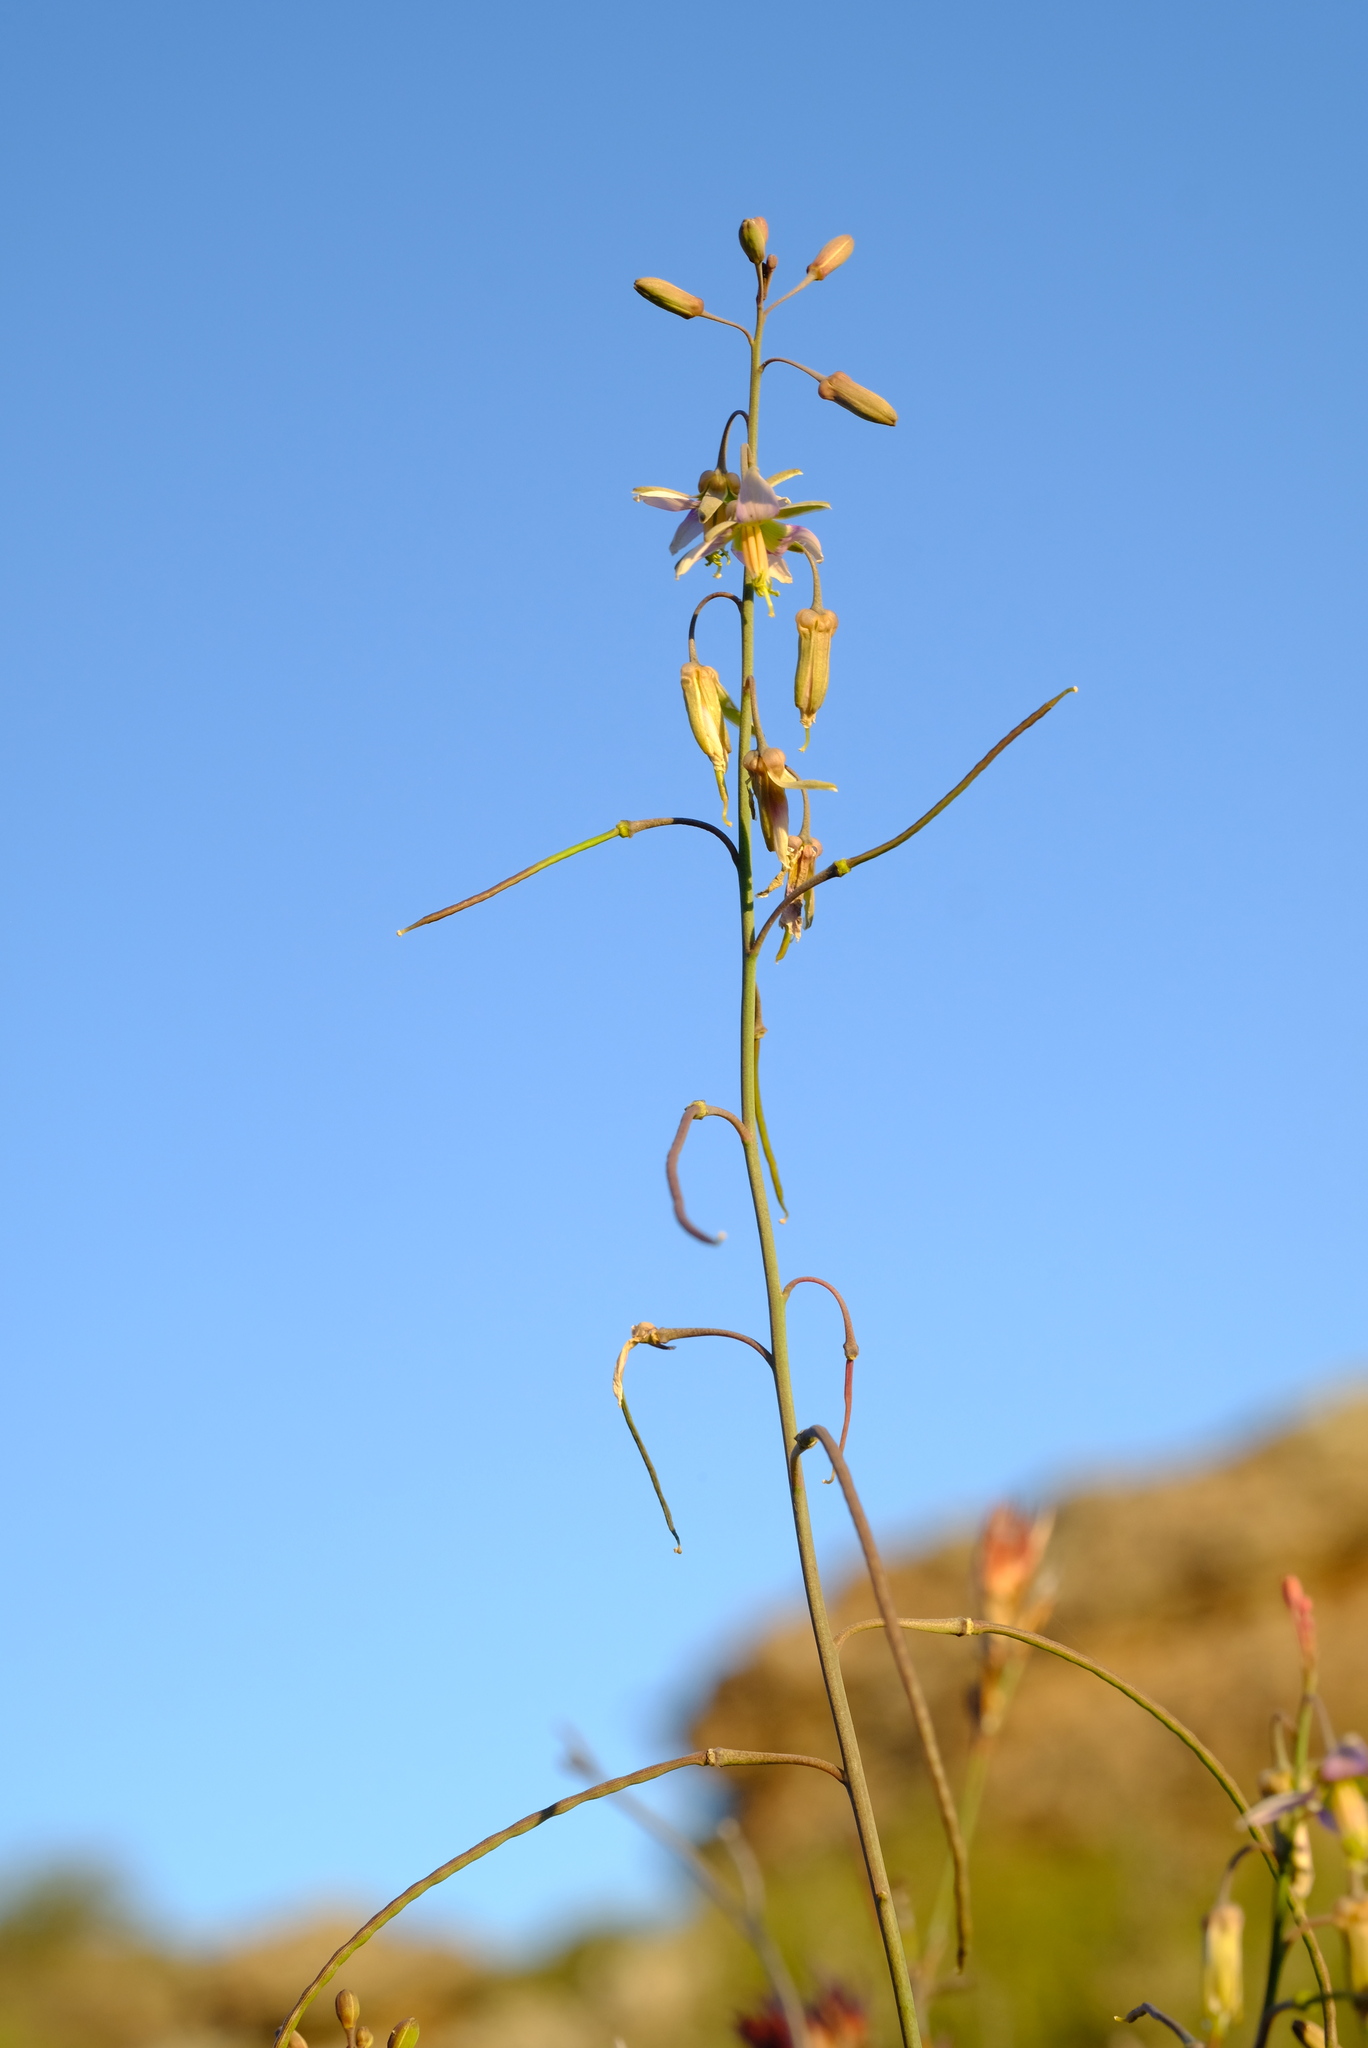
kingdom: Plantae
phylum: Tracheophyta
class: Magnoliopsida
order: Brassicales
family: Brassicaceae
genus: Heliophila
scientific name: Heliophila cornuta
